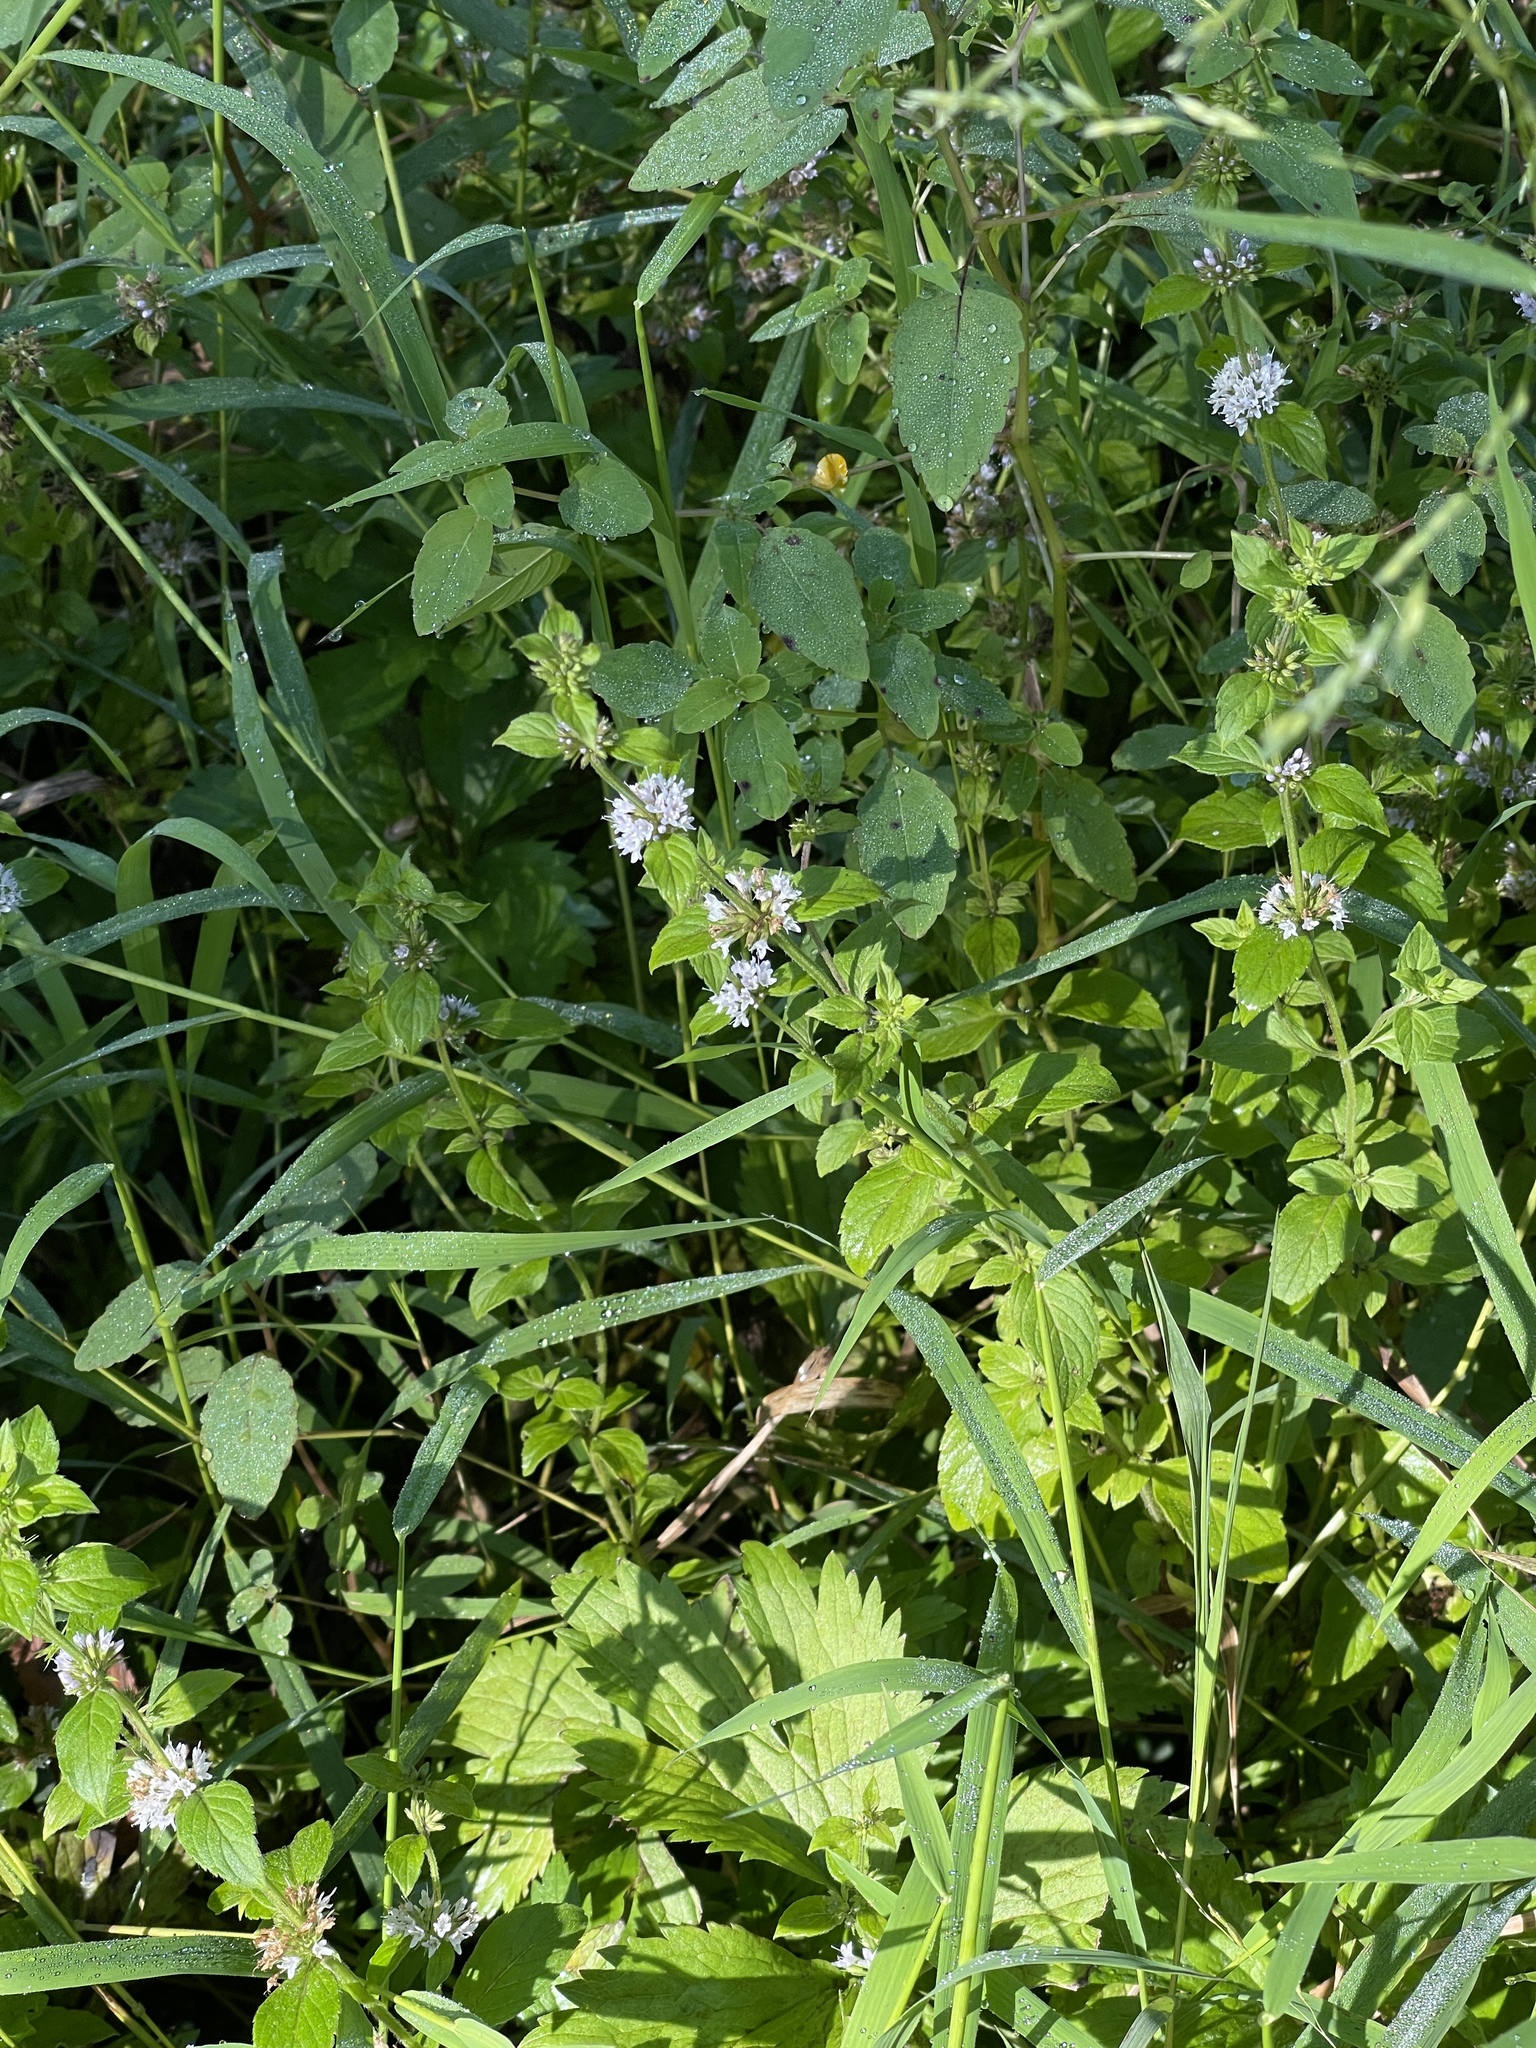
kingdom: Plantae
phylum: Tracheophyta
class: Magnoliopsida
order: Lamiales
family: Lamiaceae
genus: Mentha
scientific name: Mentha arvensis
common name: Corn mint
